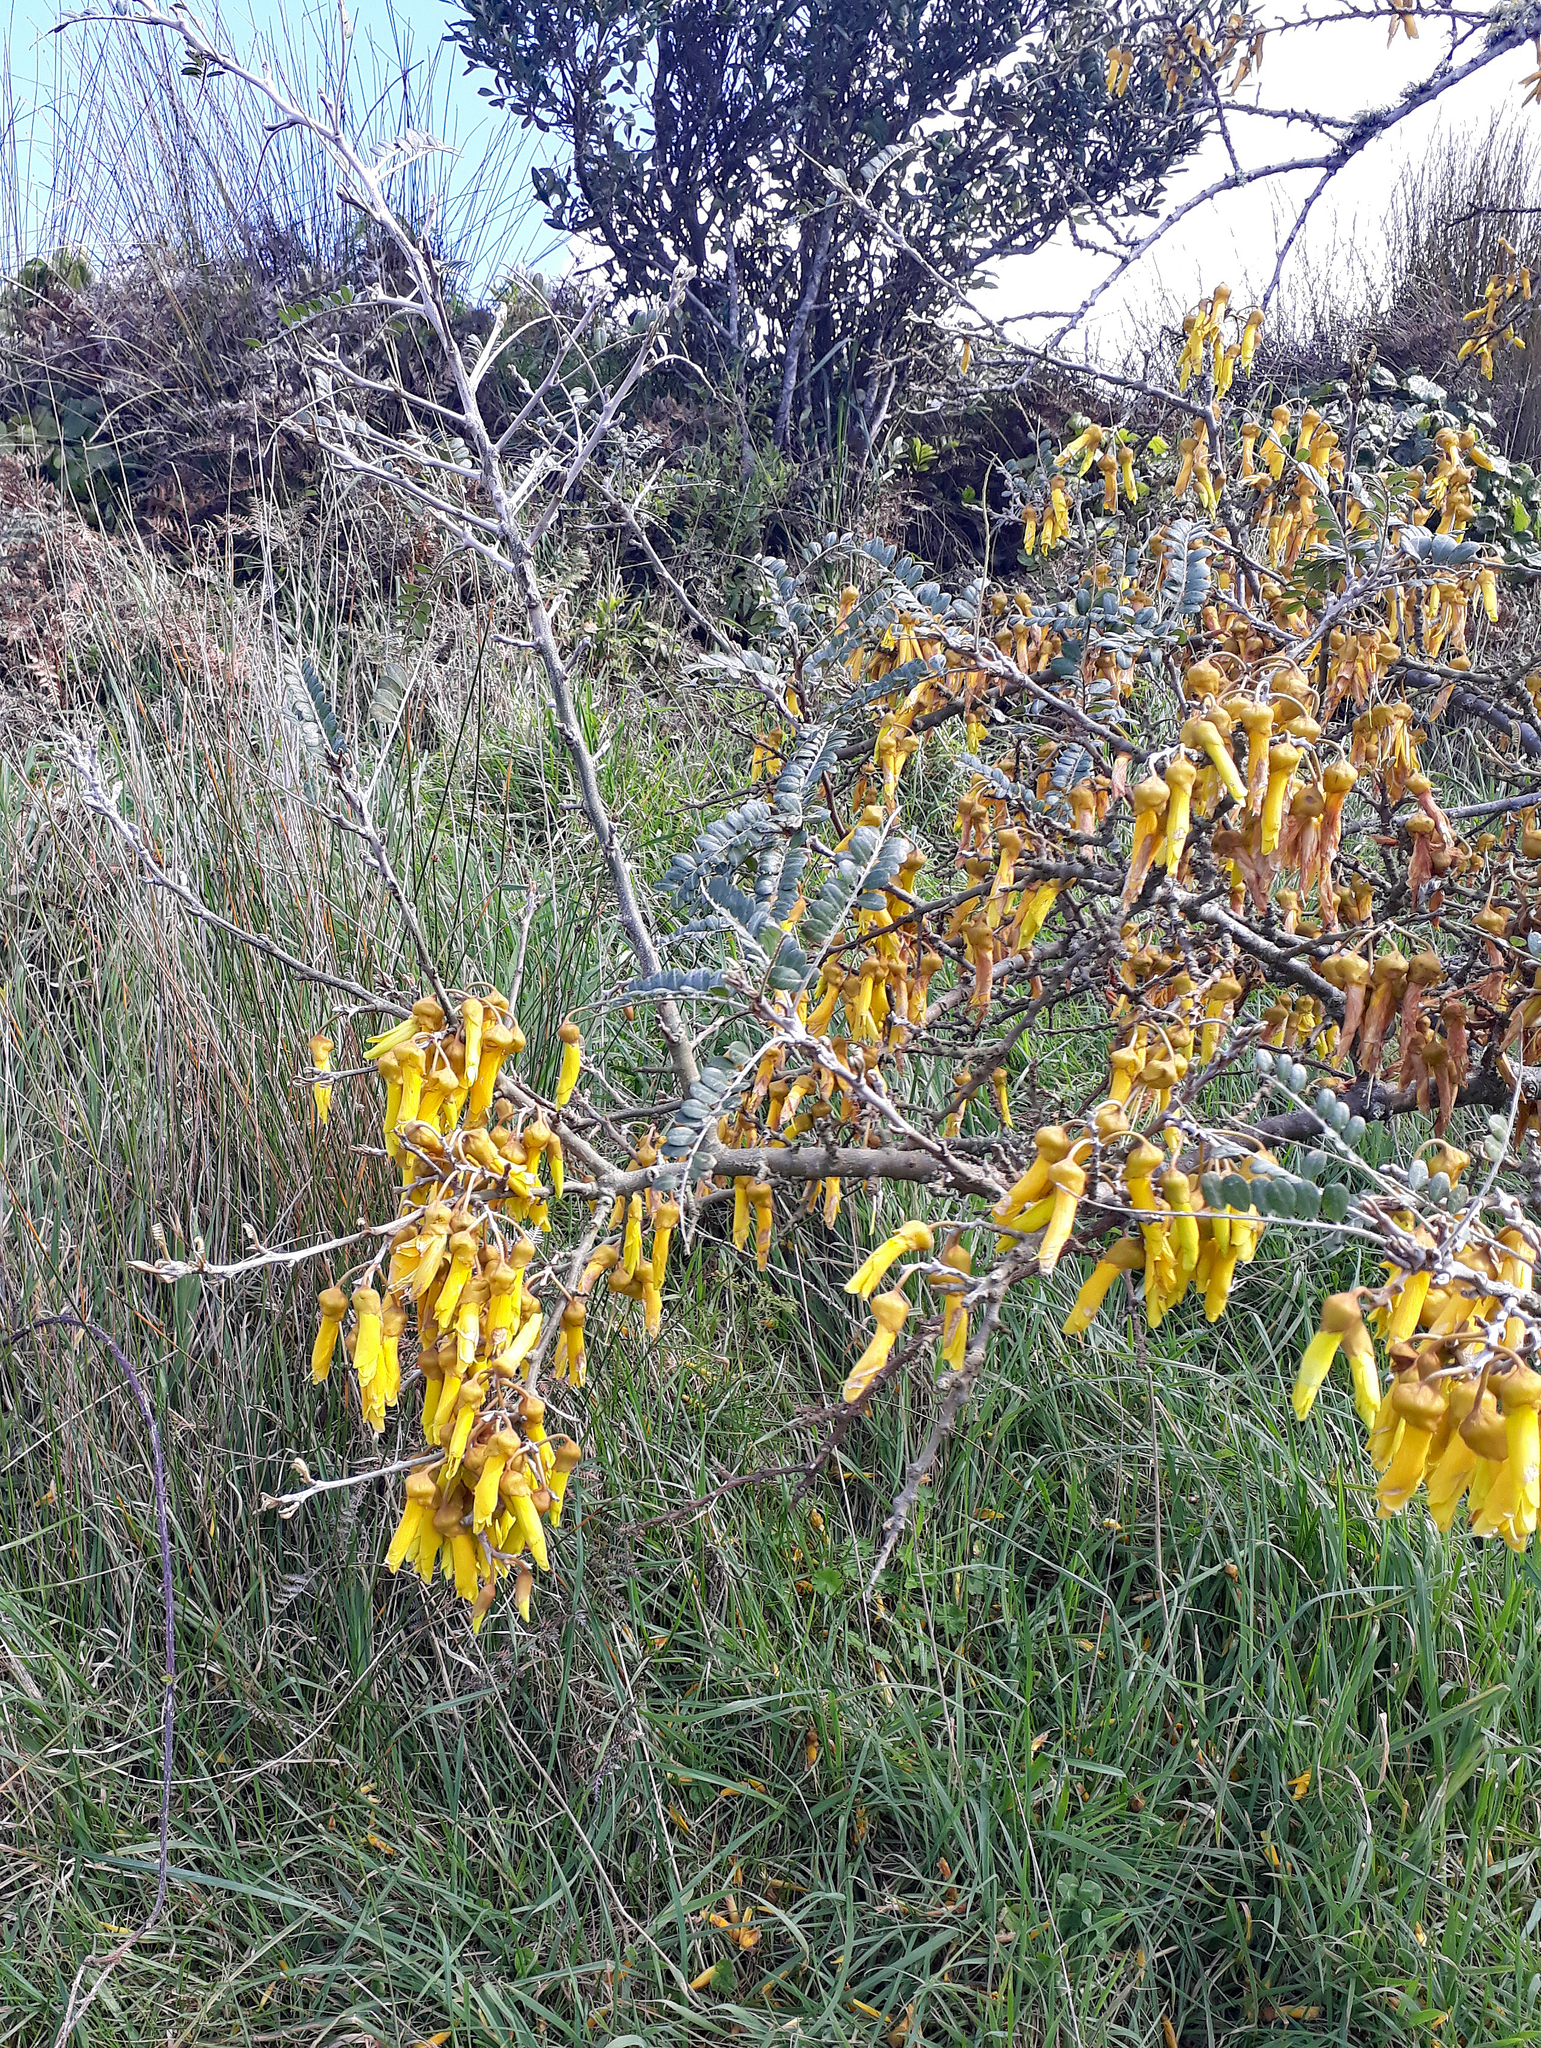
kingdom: Plantae
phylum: Tracheophyta
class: Magnoliopsida
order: Fabales
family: Fabaceae
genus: Sophora
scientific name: Sophora chathamica
